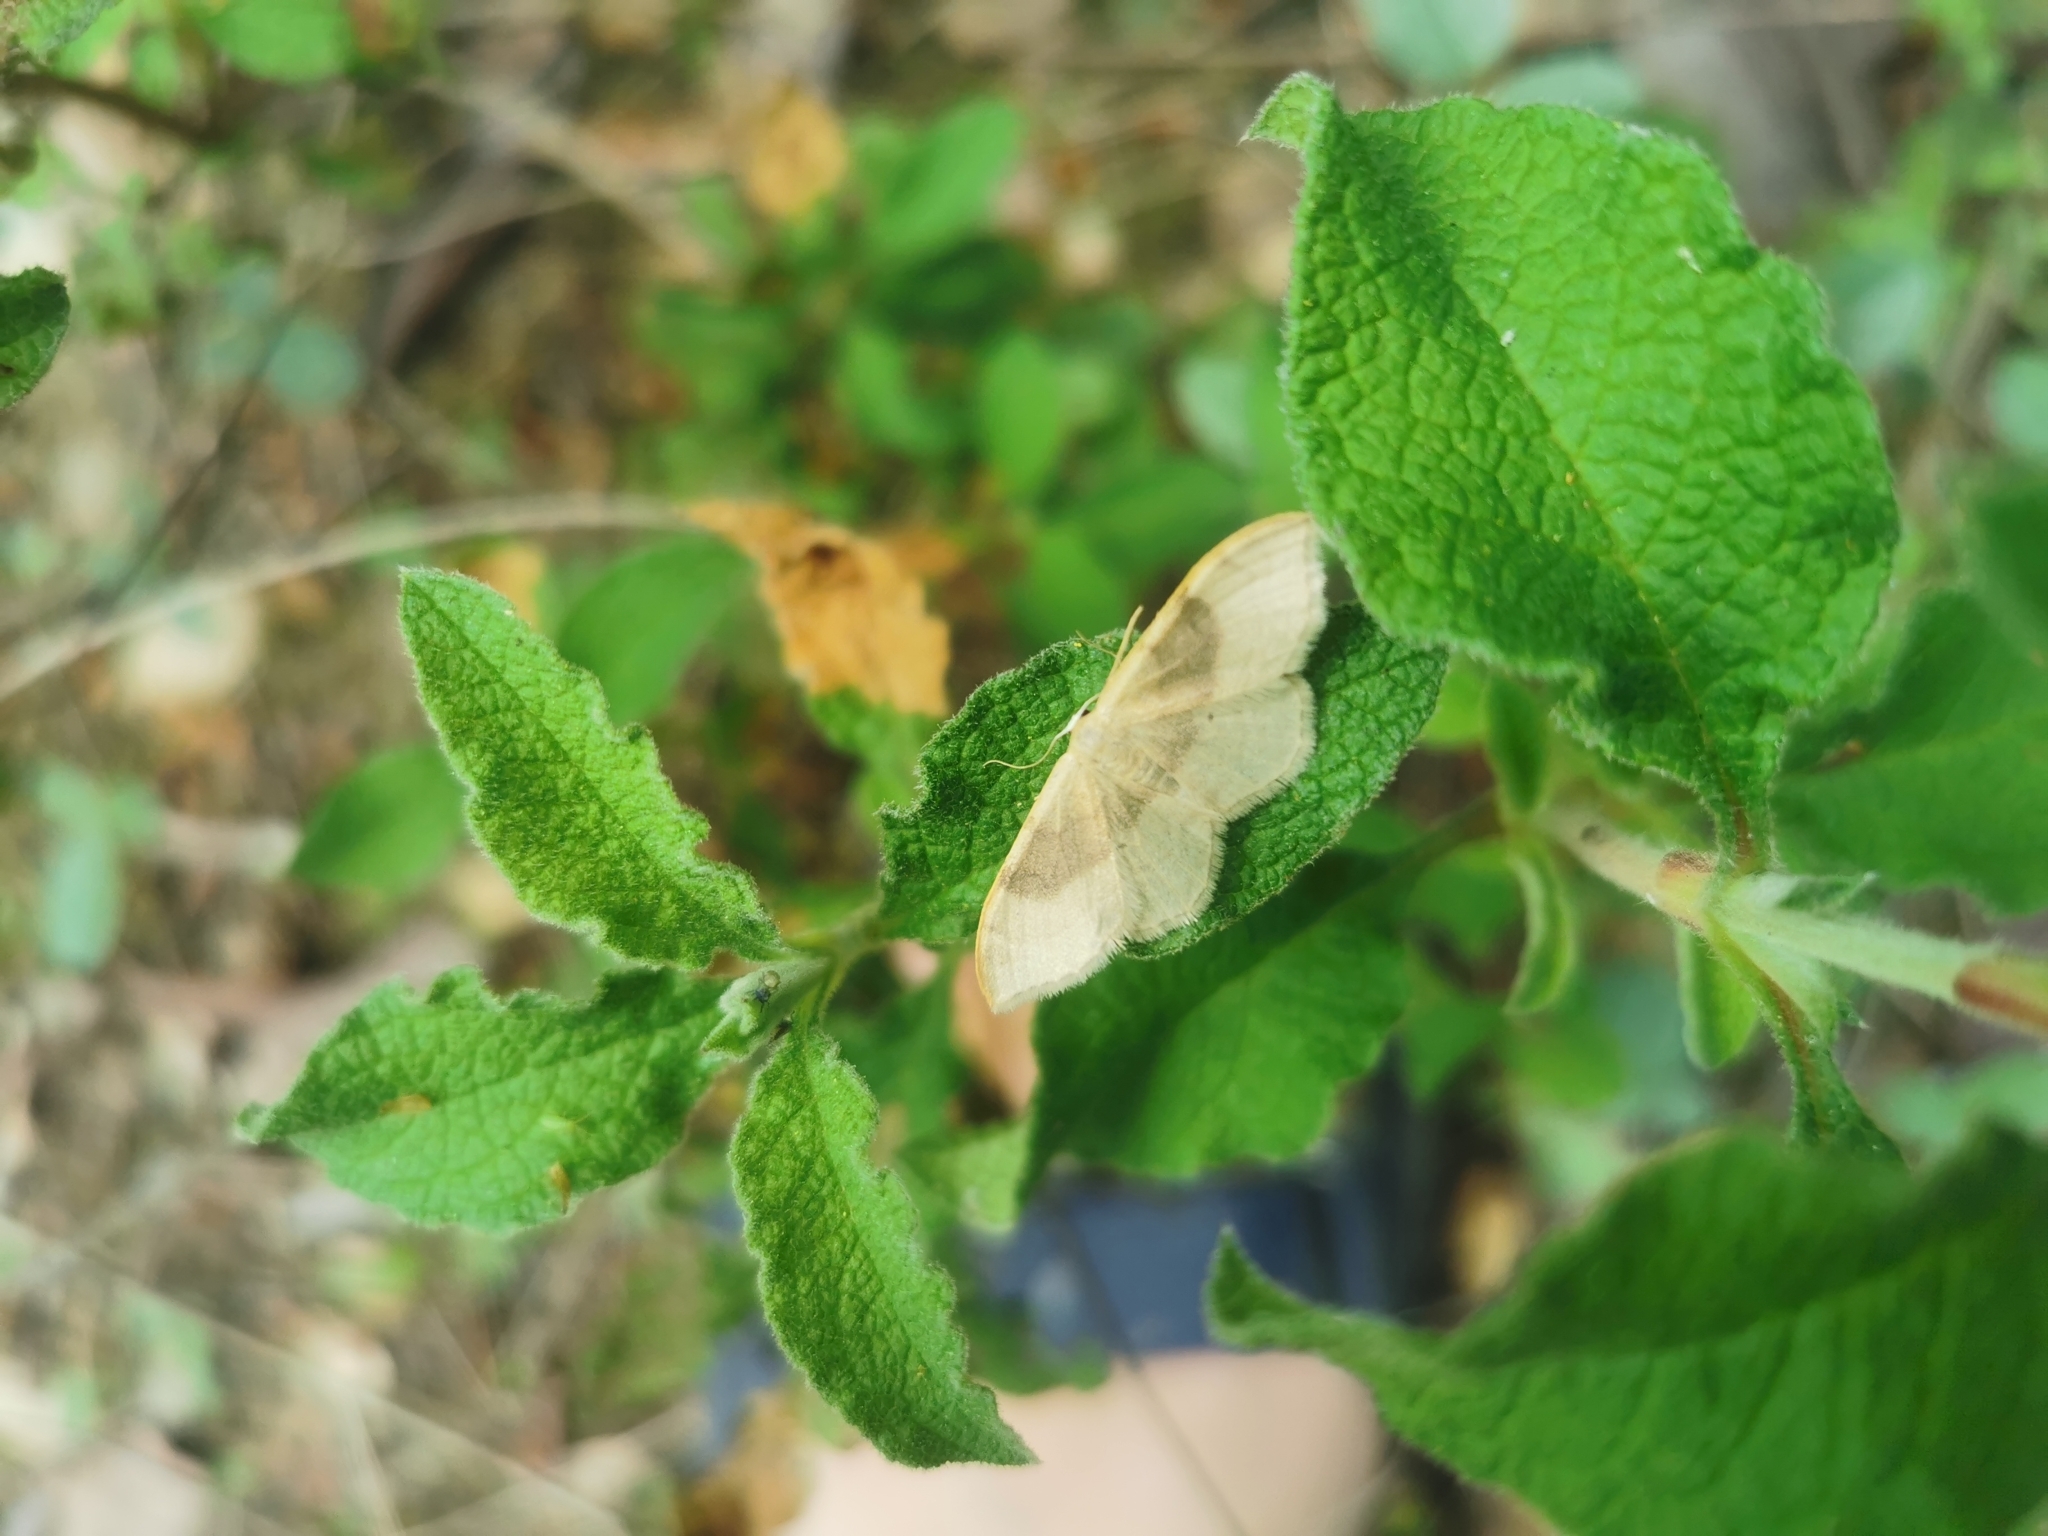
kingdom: Animalia
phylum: Arthropoda
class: Insecta
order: Lepidoptera
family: Geometridae
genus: Idaea
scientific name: Idaea degeneraria
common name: Portland ribbon wave
